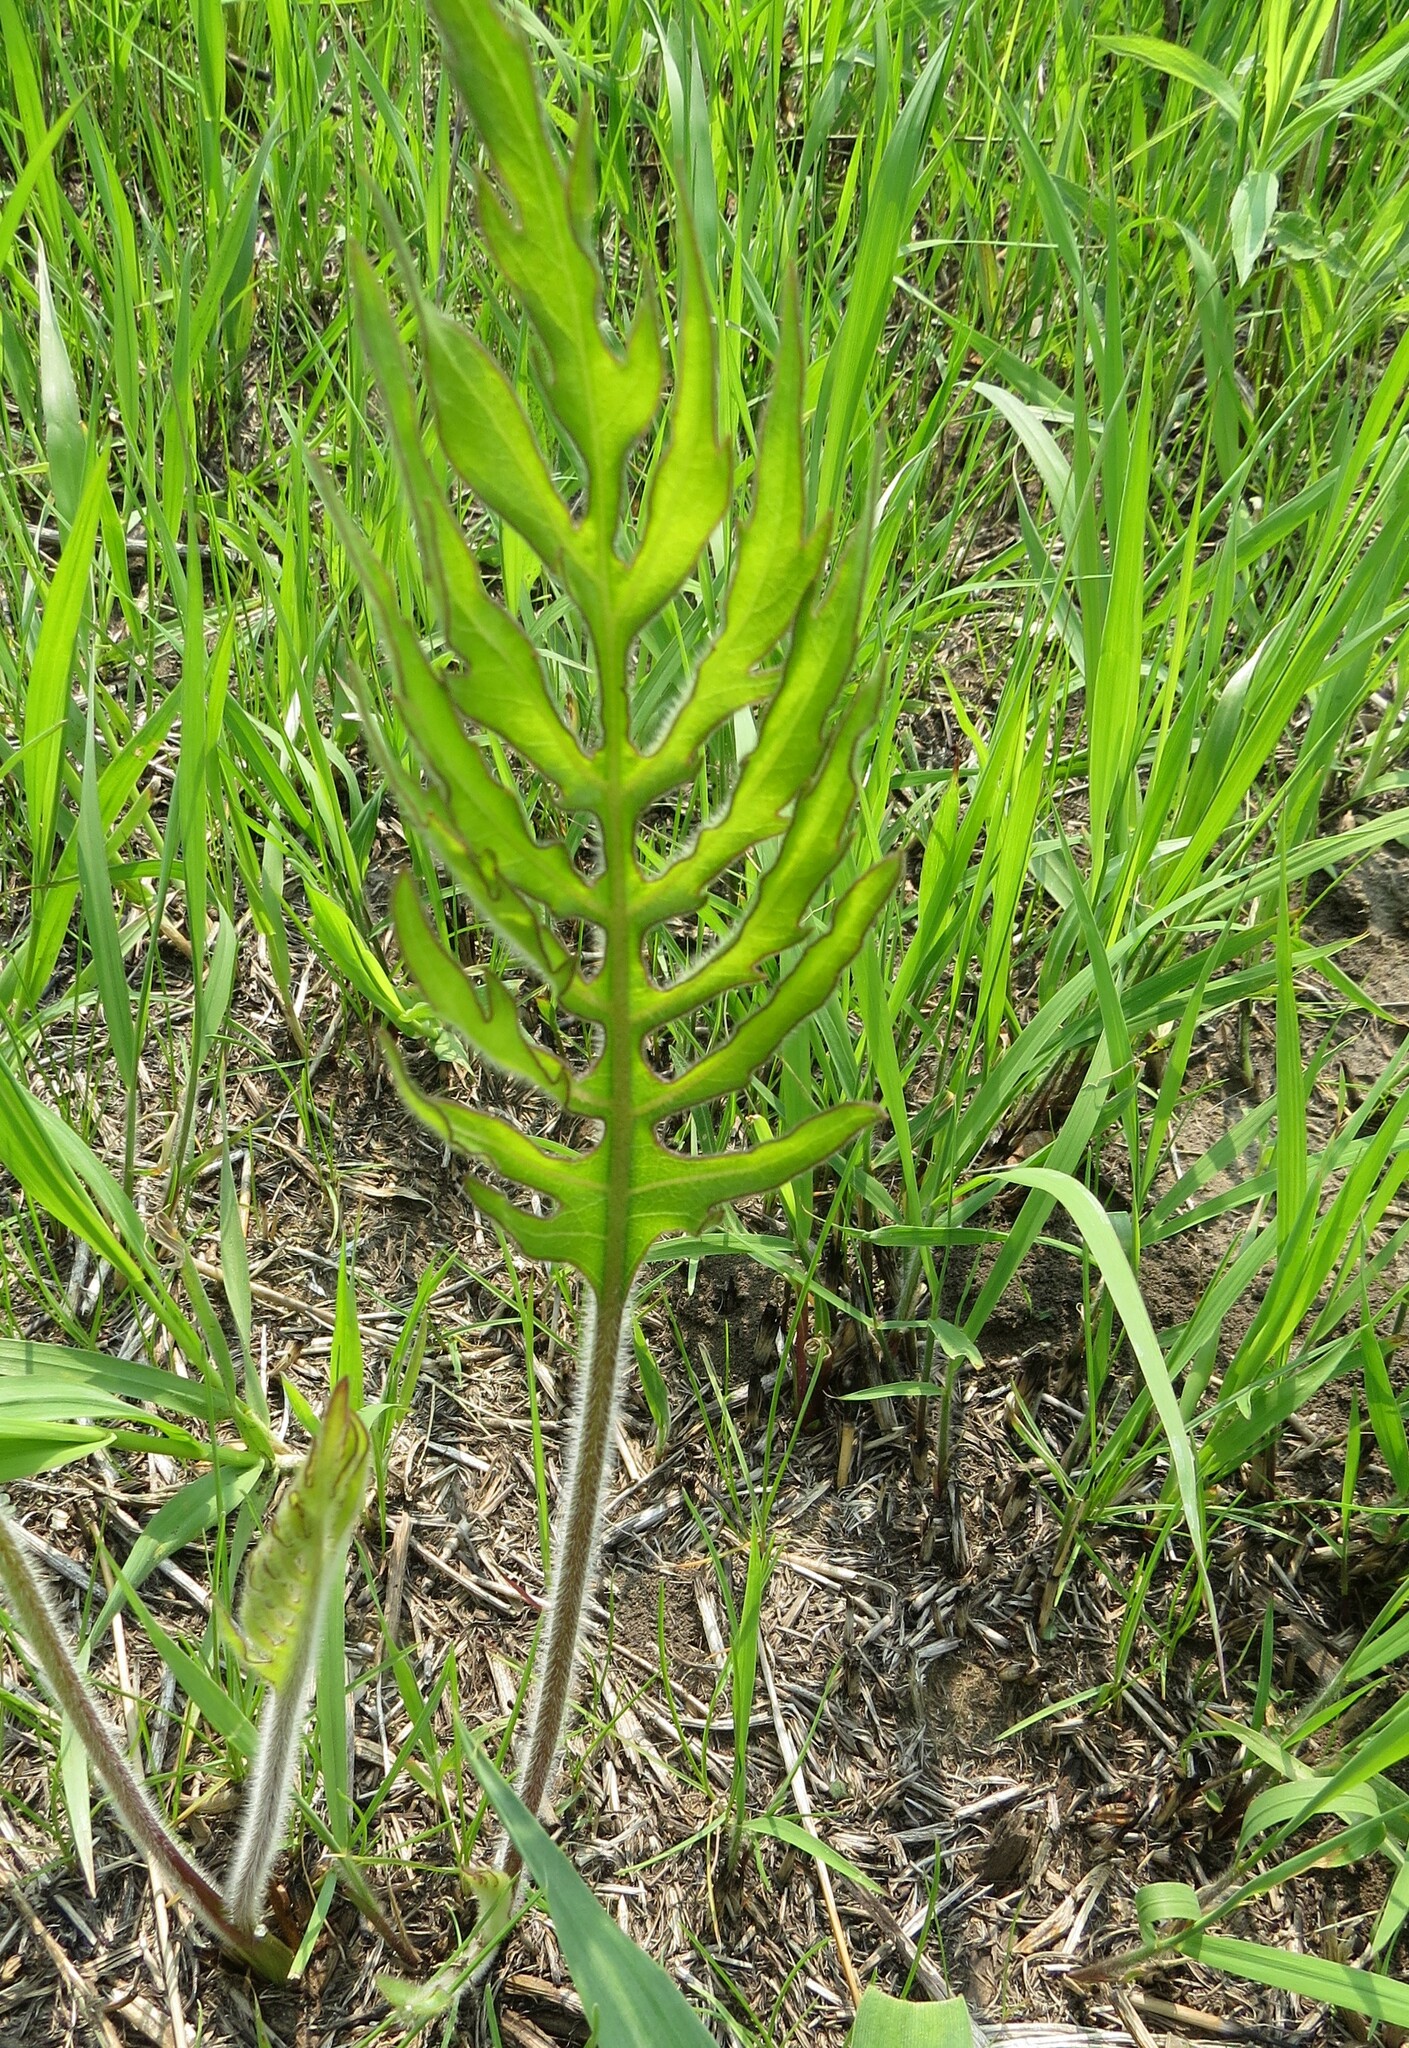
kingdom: Plantae
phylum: Tracheophyta
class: Magnoliopsida
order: Asterales
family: Asteraceae
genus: Silphium
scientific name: Silphium laciniatum
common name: Polarplant
